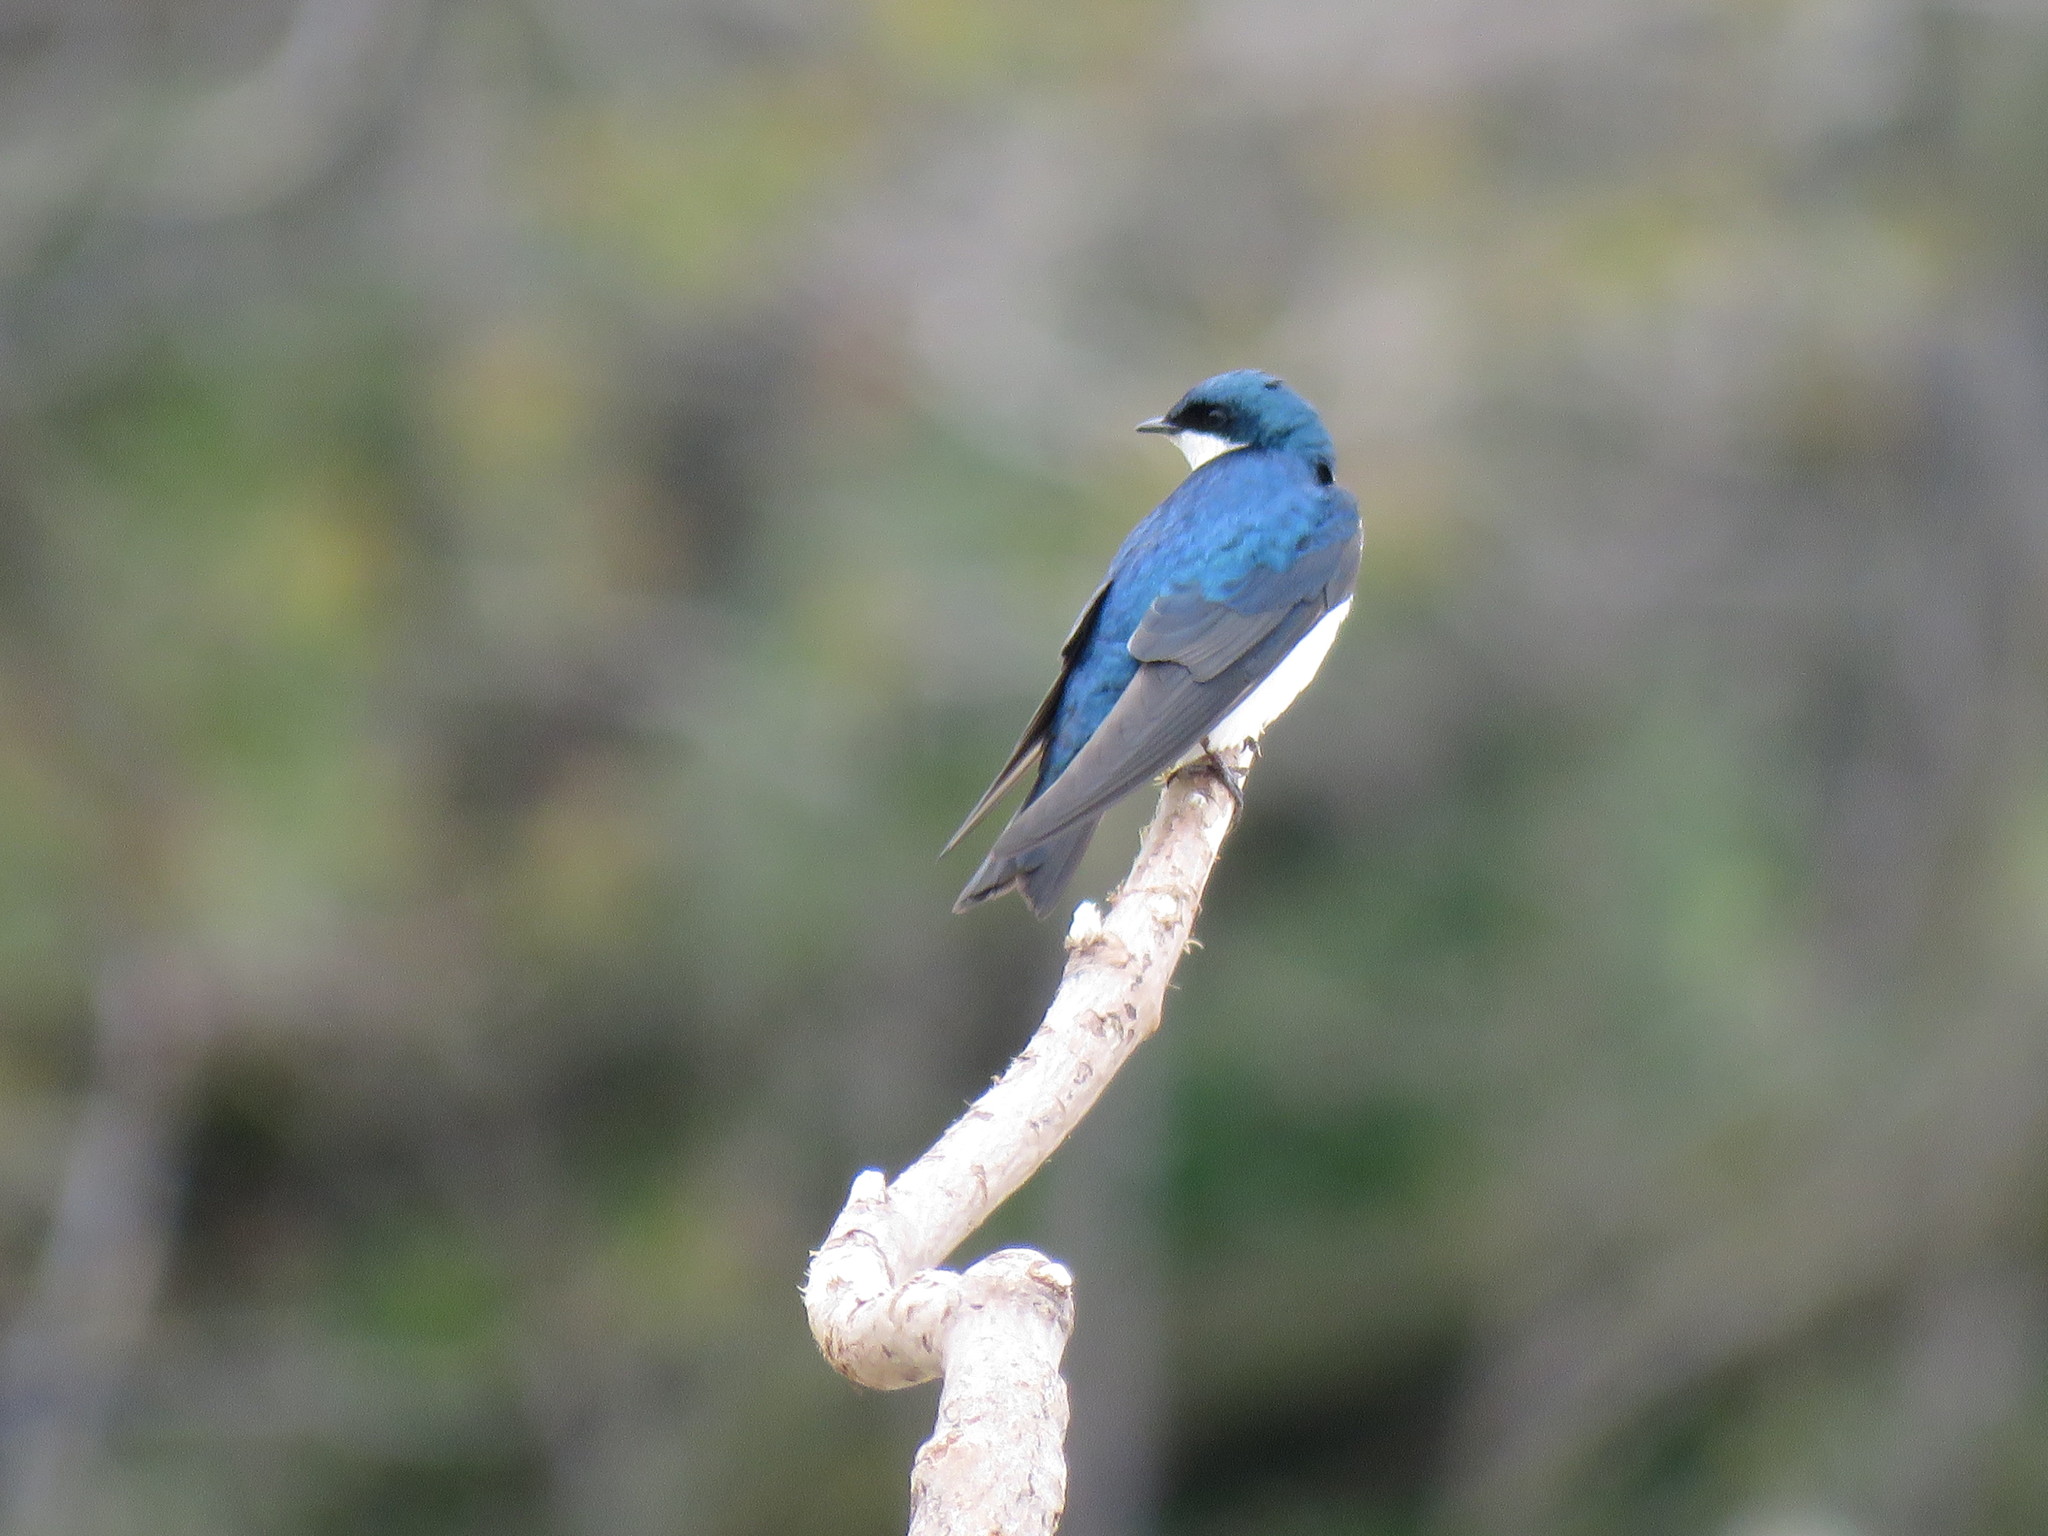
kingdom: Animalia
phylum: Chordata
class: Aves
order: Passeriformes
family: Hirundinidae
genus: Tachycineta
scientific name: Tachycineta bicolor
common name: Tree swallow
